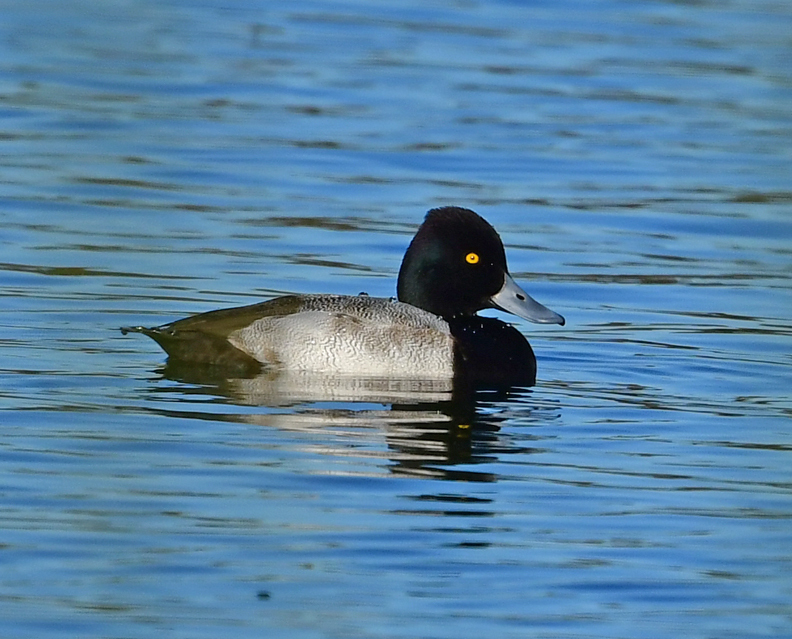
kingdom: Animalia
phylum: Chordata
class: Aves
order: Anseriformes
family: Anatidae
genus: Aythya
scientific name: Aythya affinis
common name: Lesser scaup
